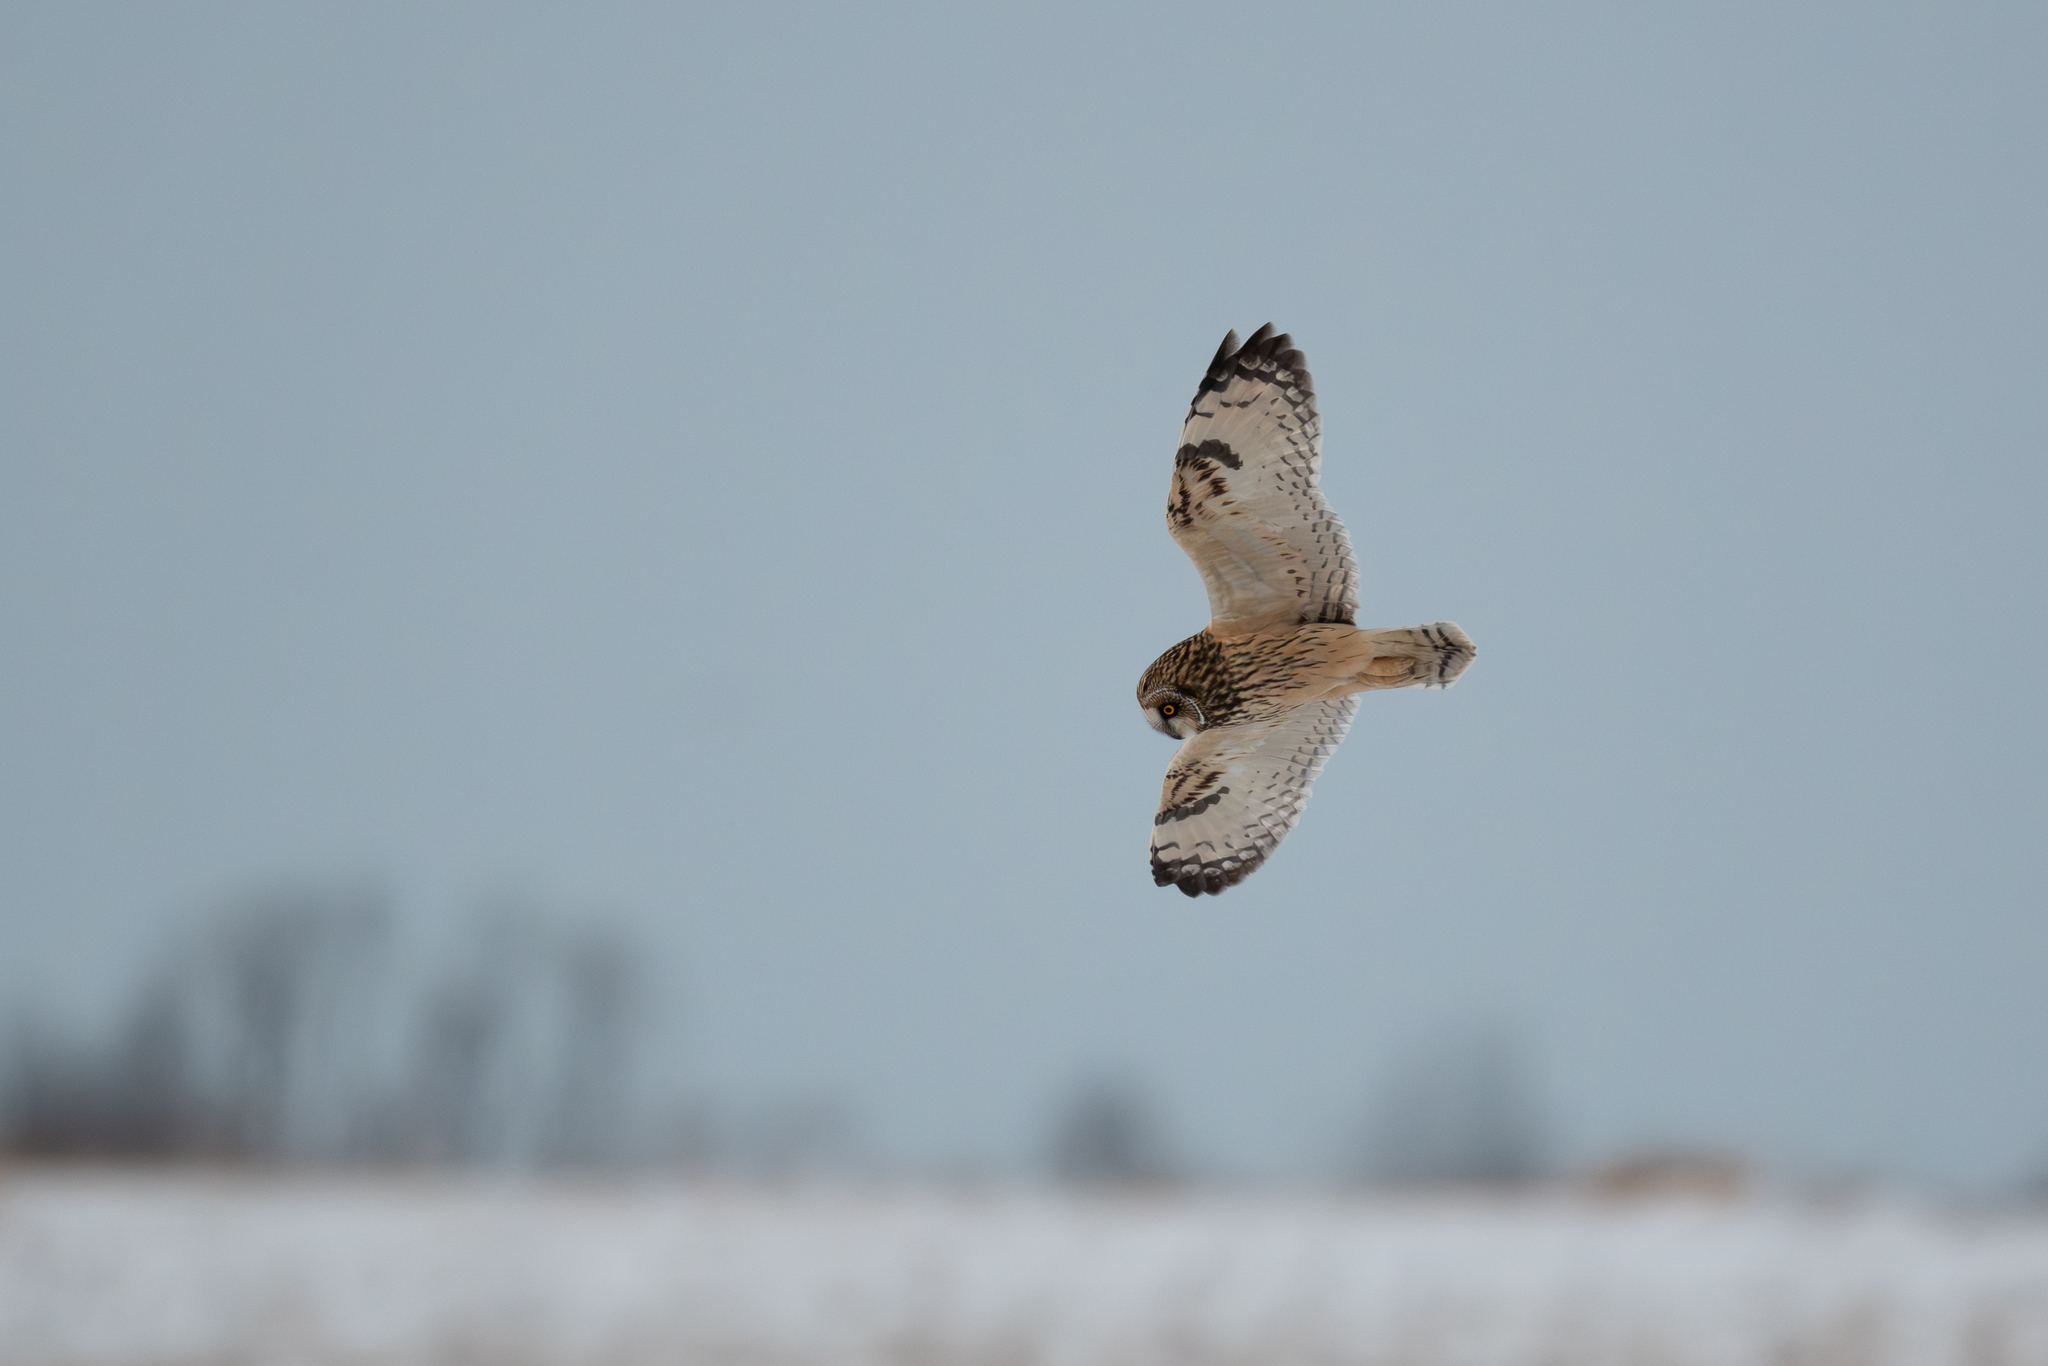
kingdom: Animalia
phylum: Chordata
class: Aves
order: Strigiformes
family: Strigidae
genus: Asio
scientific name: Asio flammeus
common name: Short-eared owl
